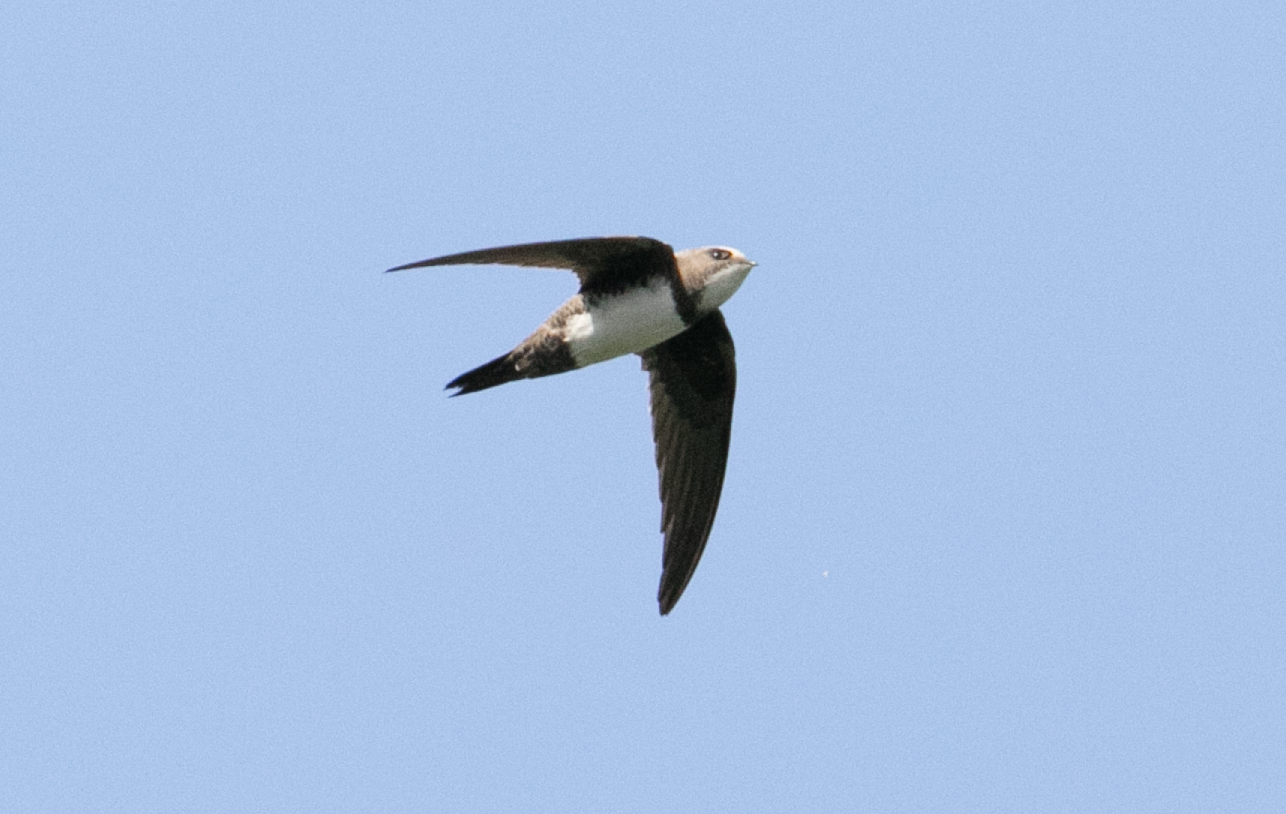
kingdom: Animalia
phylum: Chordata
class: Aves
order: Apodiformes
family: Apodidae
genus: Tachymarptis
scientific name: Tachymarptis melba
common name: Alpine swift
